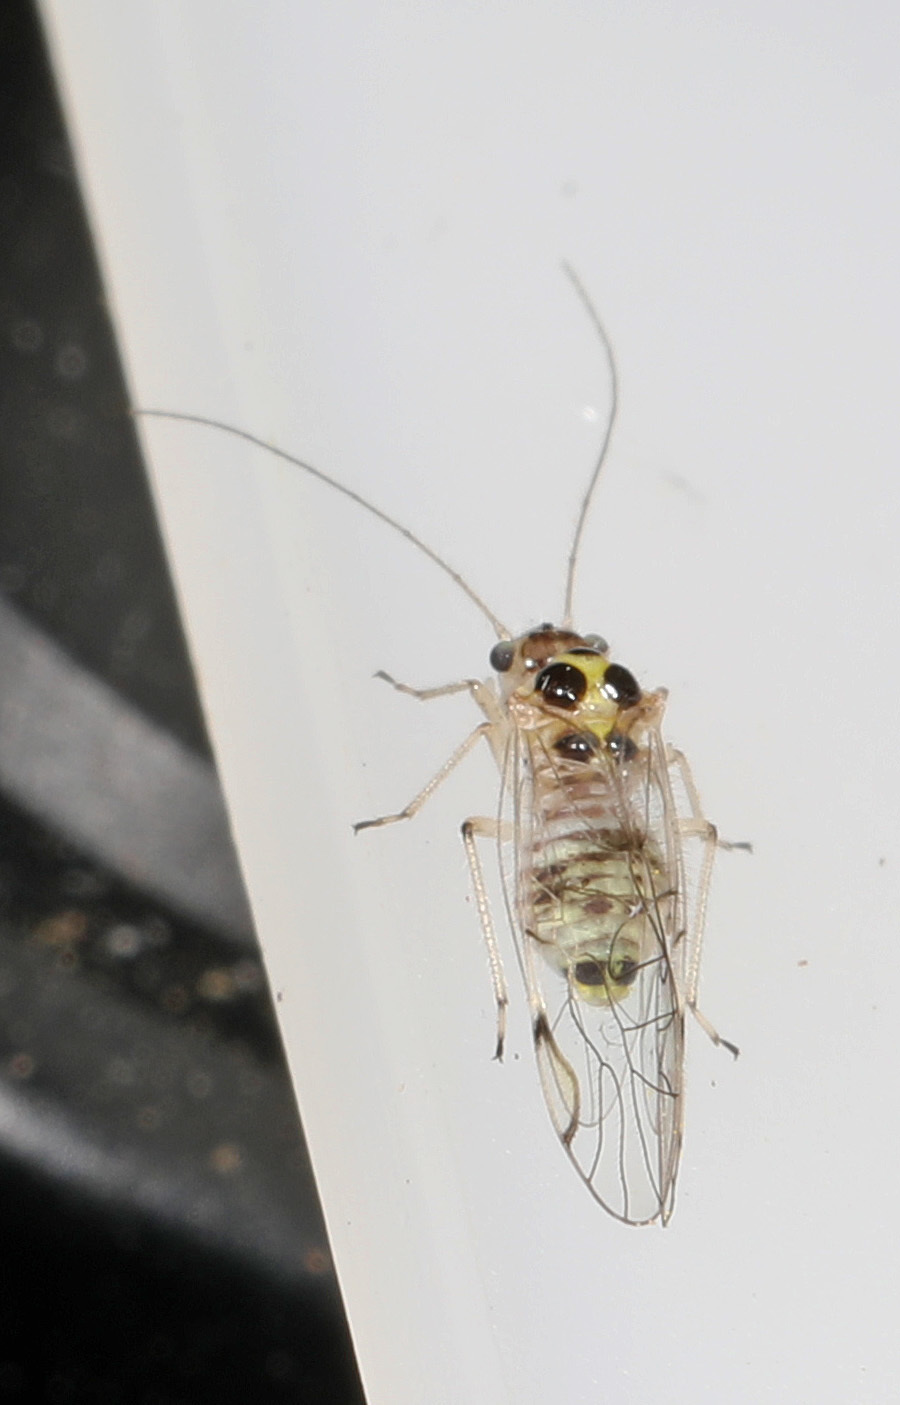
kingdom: Animalia
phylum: Arthropoda
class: Insecta
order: Psocodea
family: Dasydemellidae
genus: Teliapsocus
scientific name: Teliapsocus conterminus
